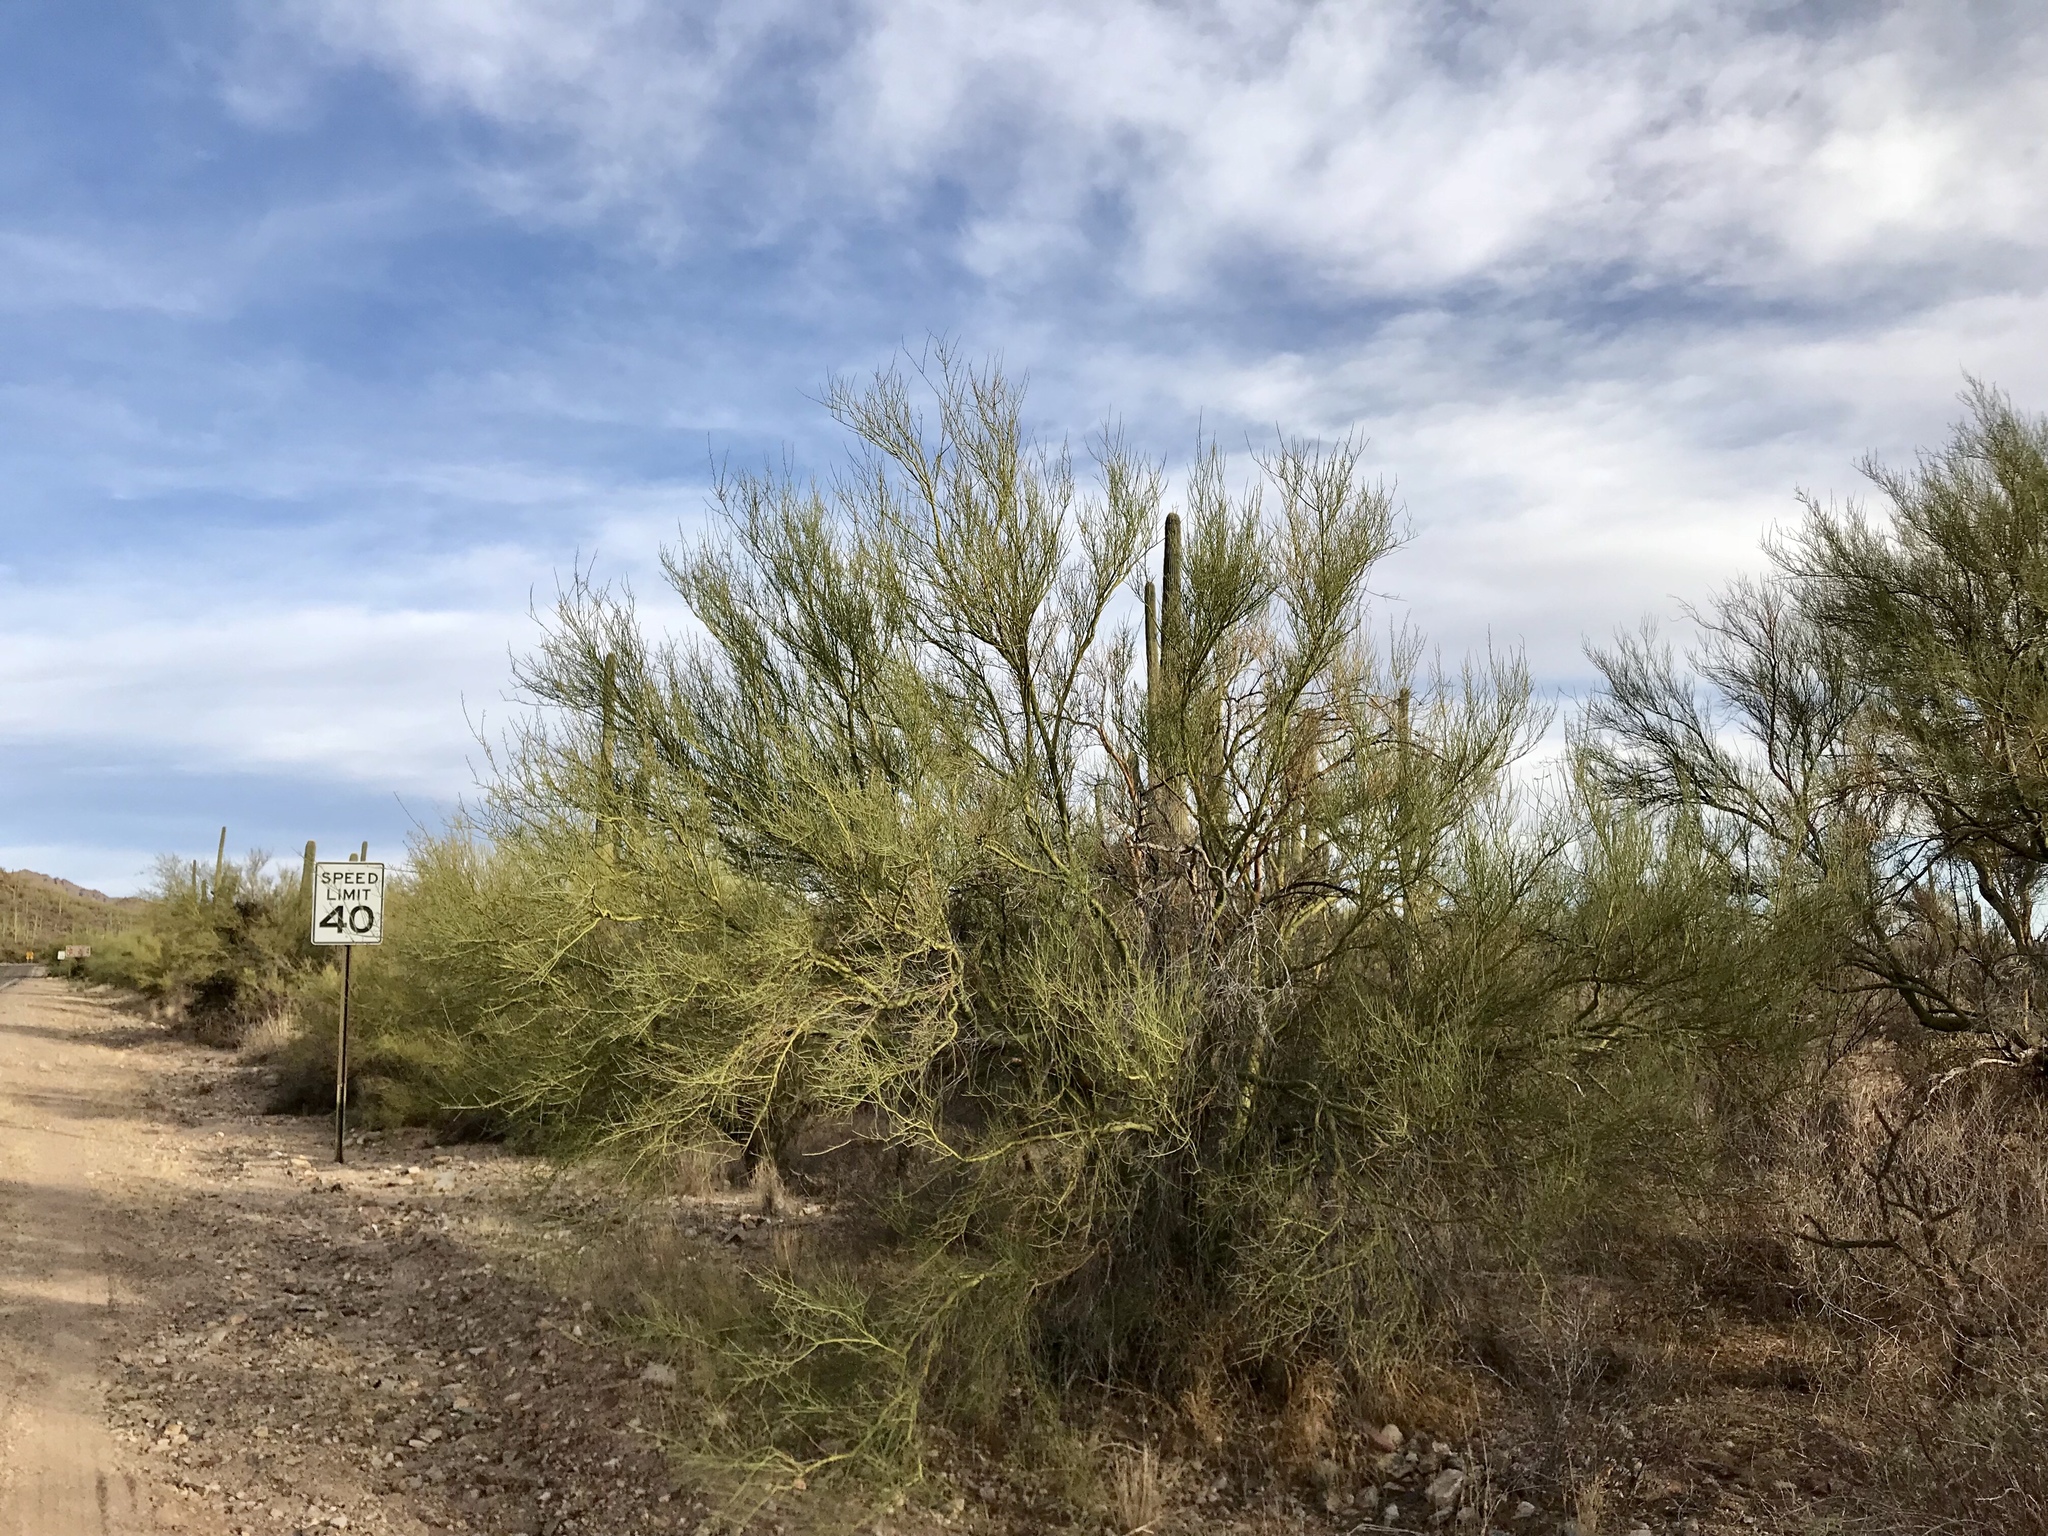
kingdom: Plantae
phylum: Tracheophyta
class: Magnoliopsida
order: Fabales
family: Fabaceae
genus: Parkinsonia
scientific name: Parkinsonia microphylla
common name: Yellow paloverde
